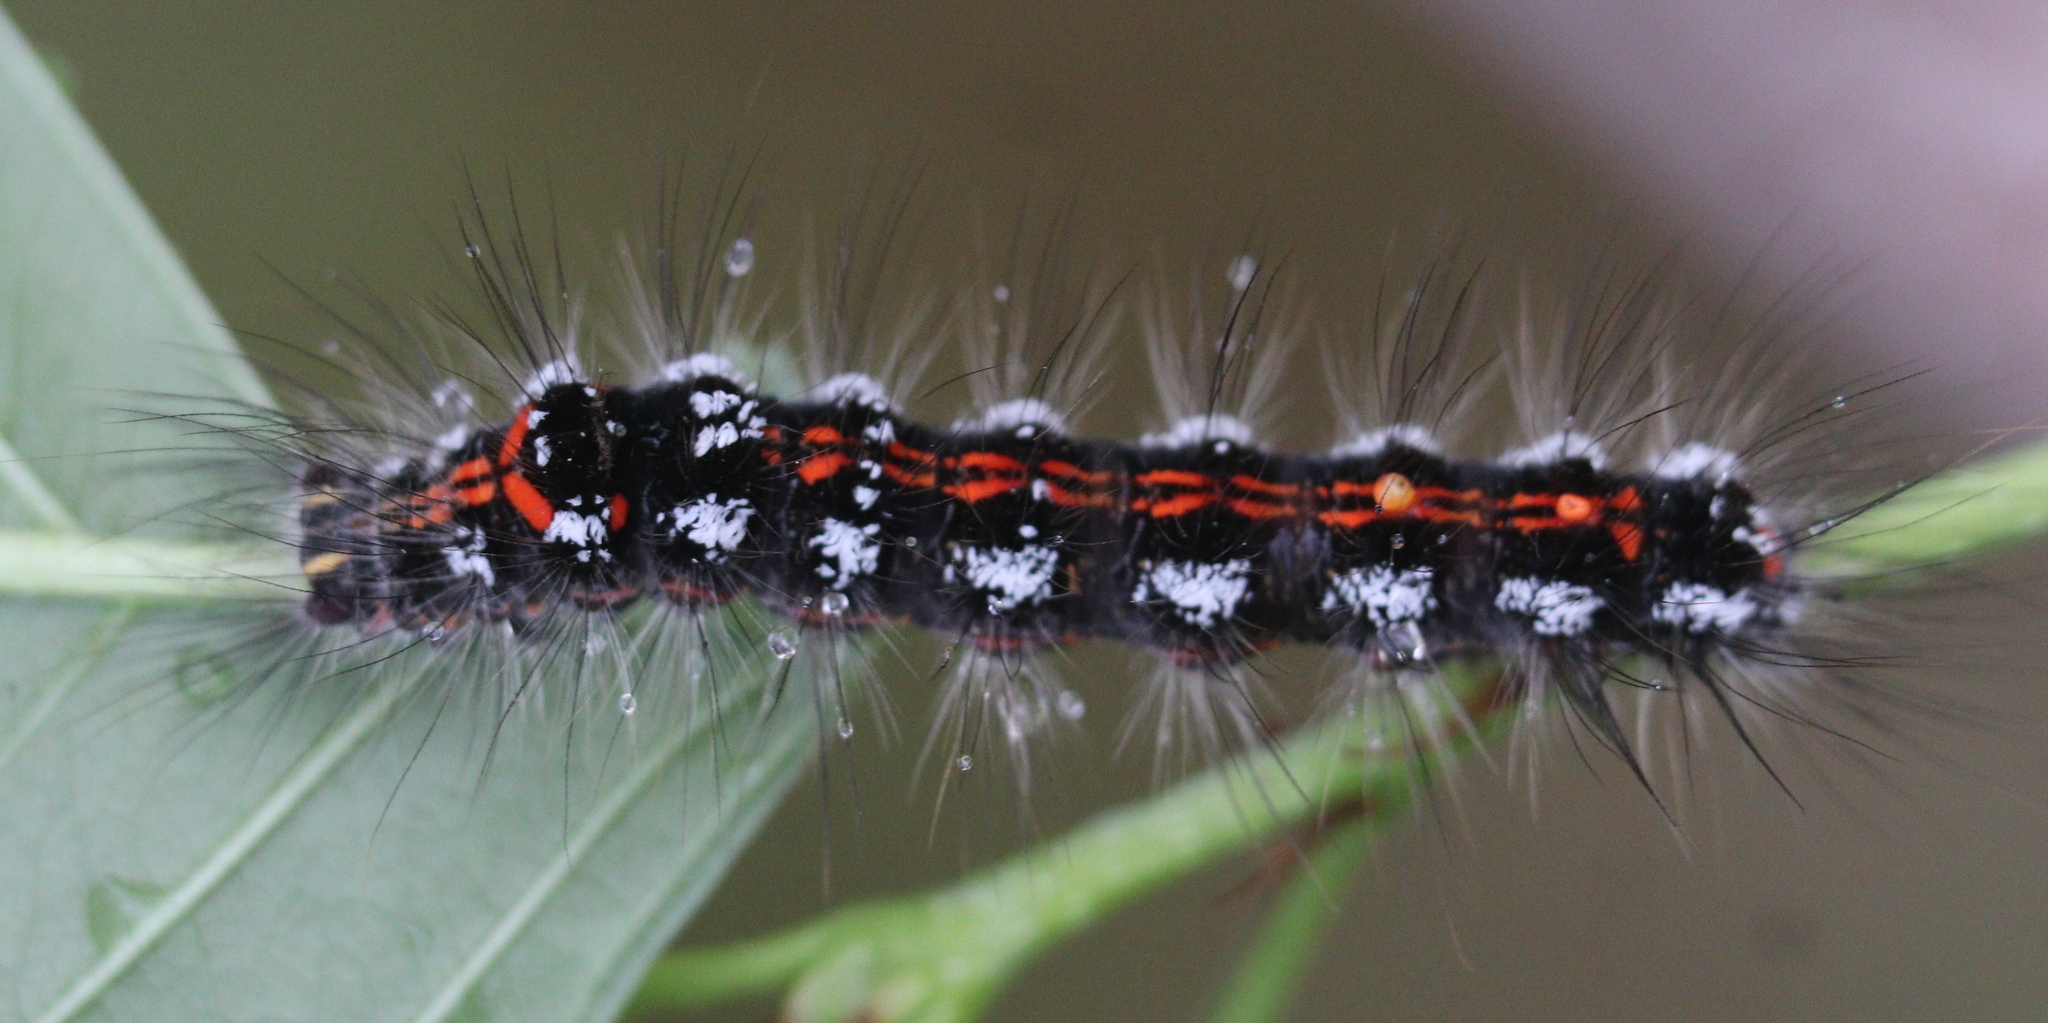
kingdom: Animalia
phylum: Arthropoda
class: Insecta
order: Lepidoptera
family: Erebidae
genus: Sphrageidus
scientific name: Sphrageidus similis
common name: Yellow-tail
